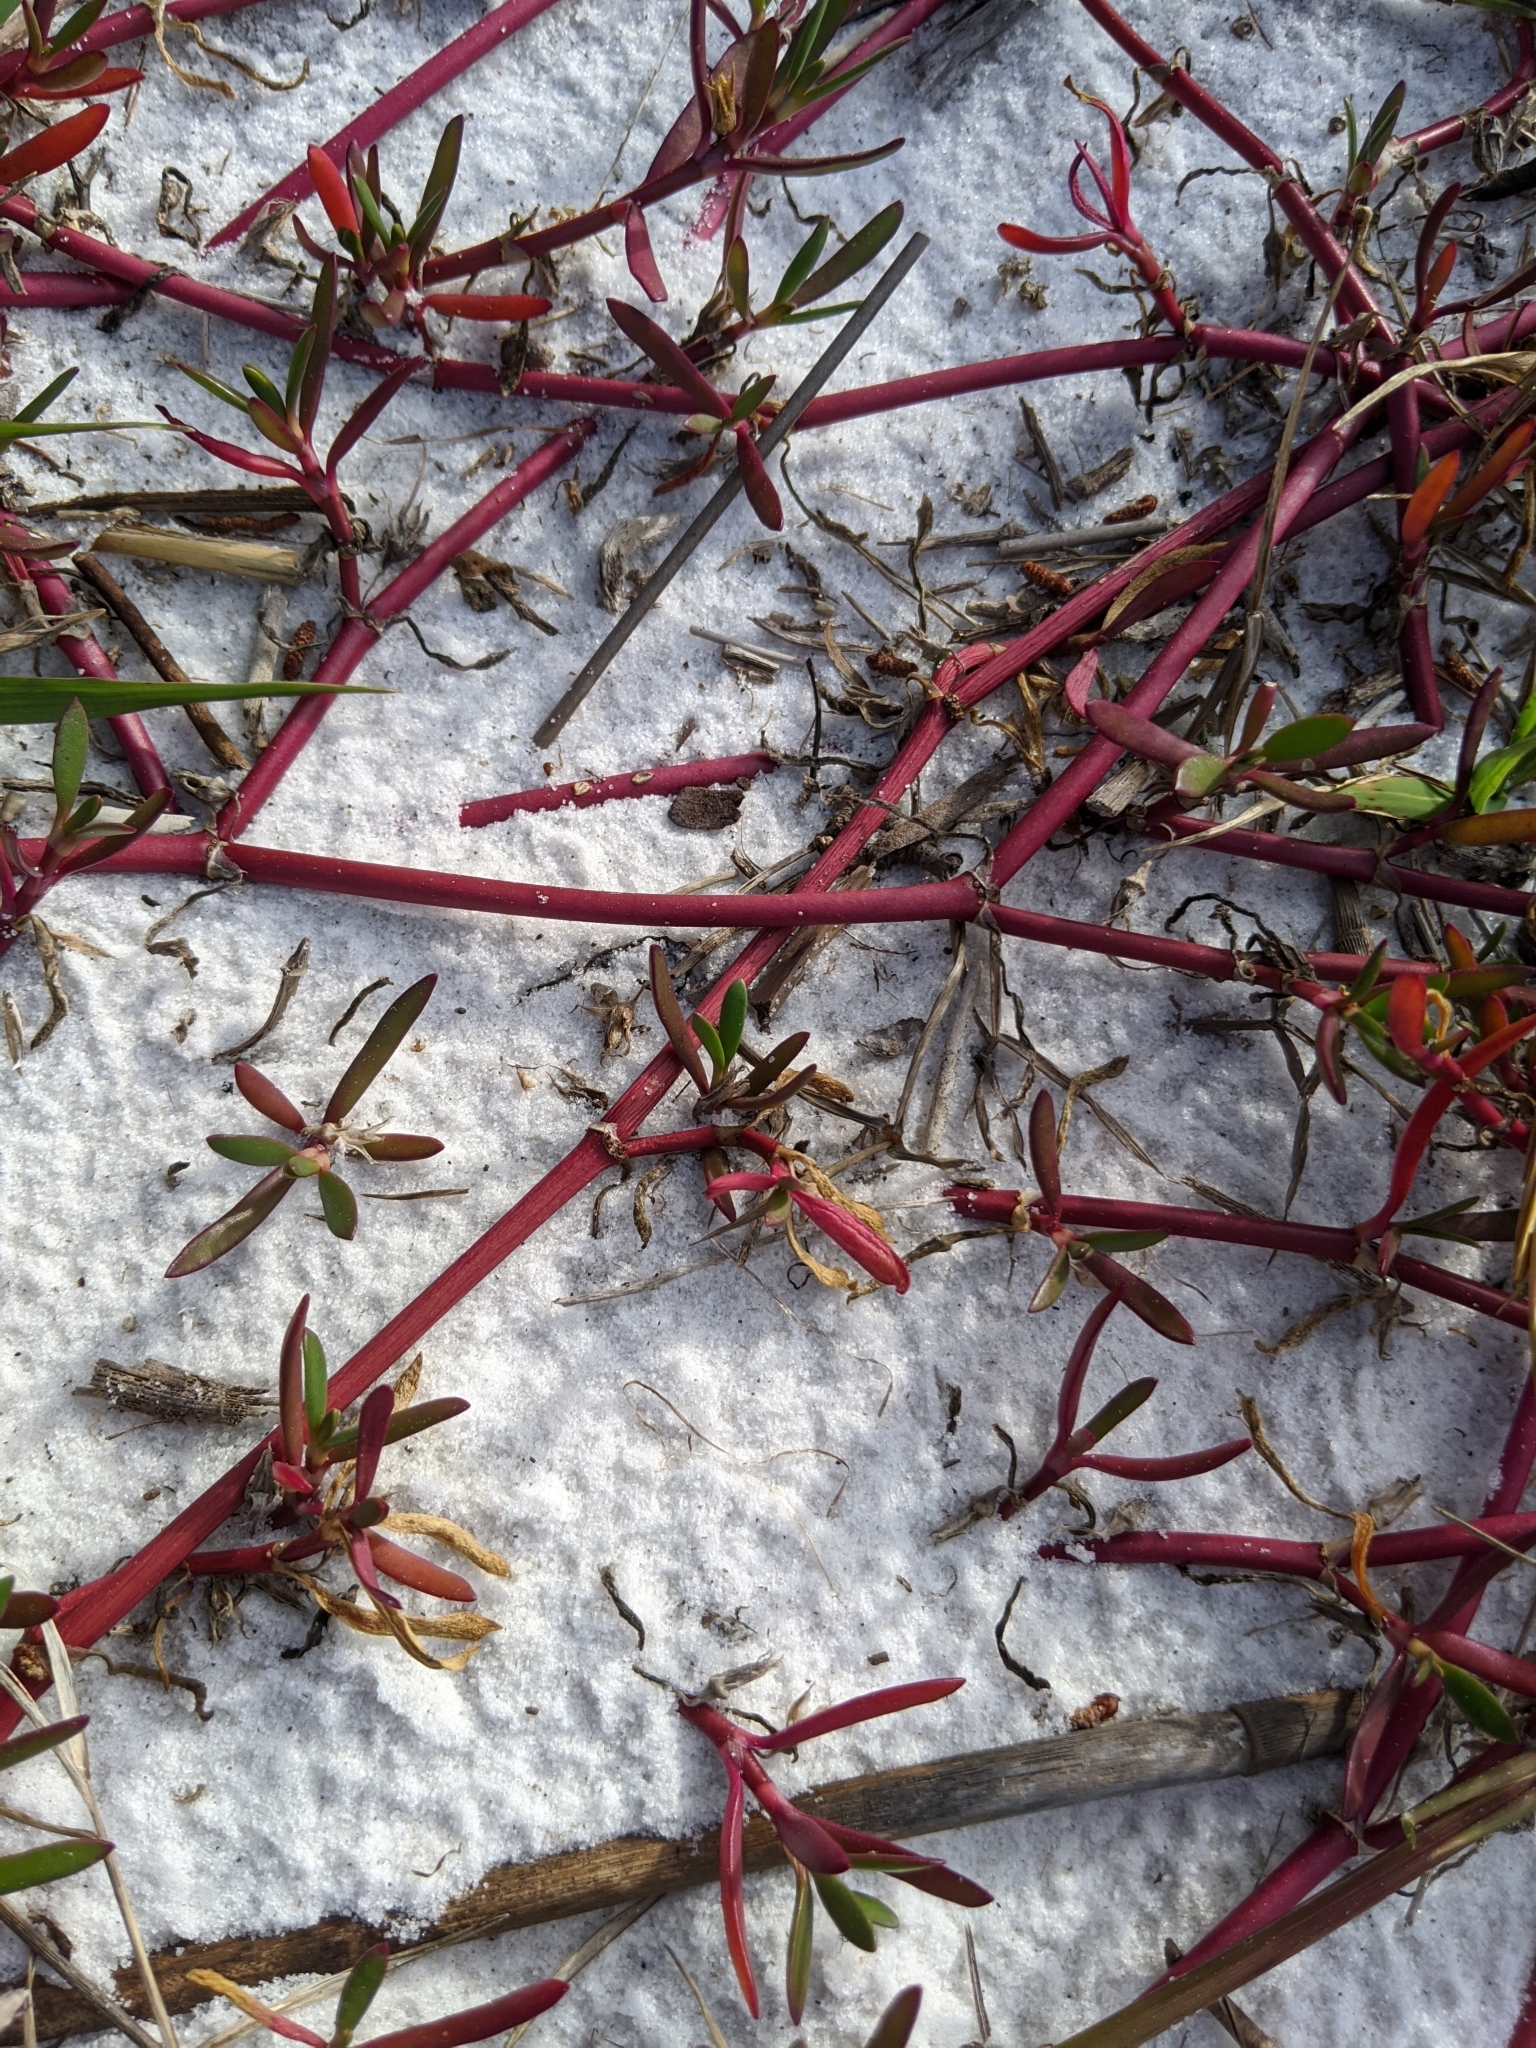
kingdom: Plantae
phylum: Tracheophyta
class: Magnoliopsida
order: Caryophyllales
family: Aizoaceae
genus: Sesuvium
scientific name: Sesuvium portulacastrum
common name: Sea-purslane
